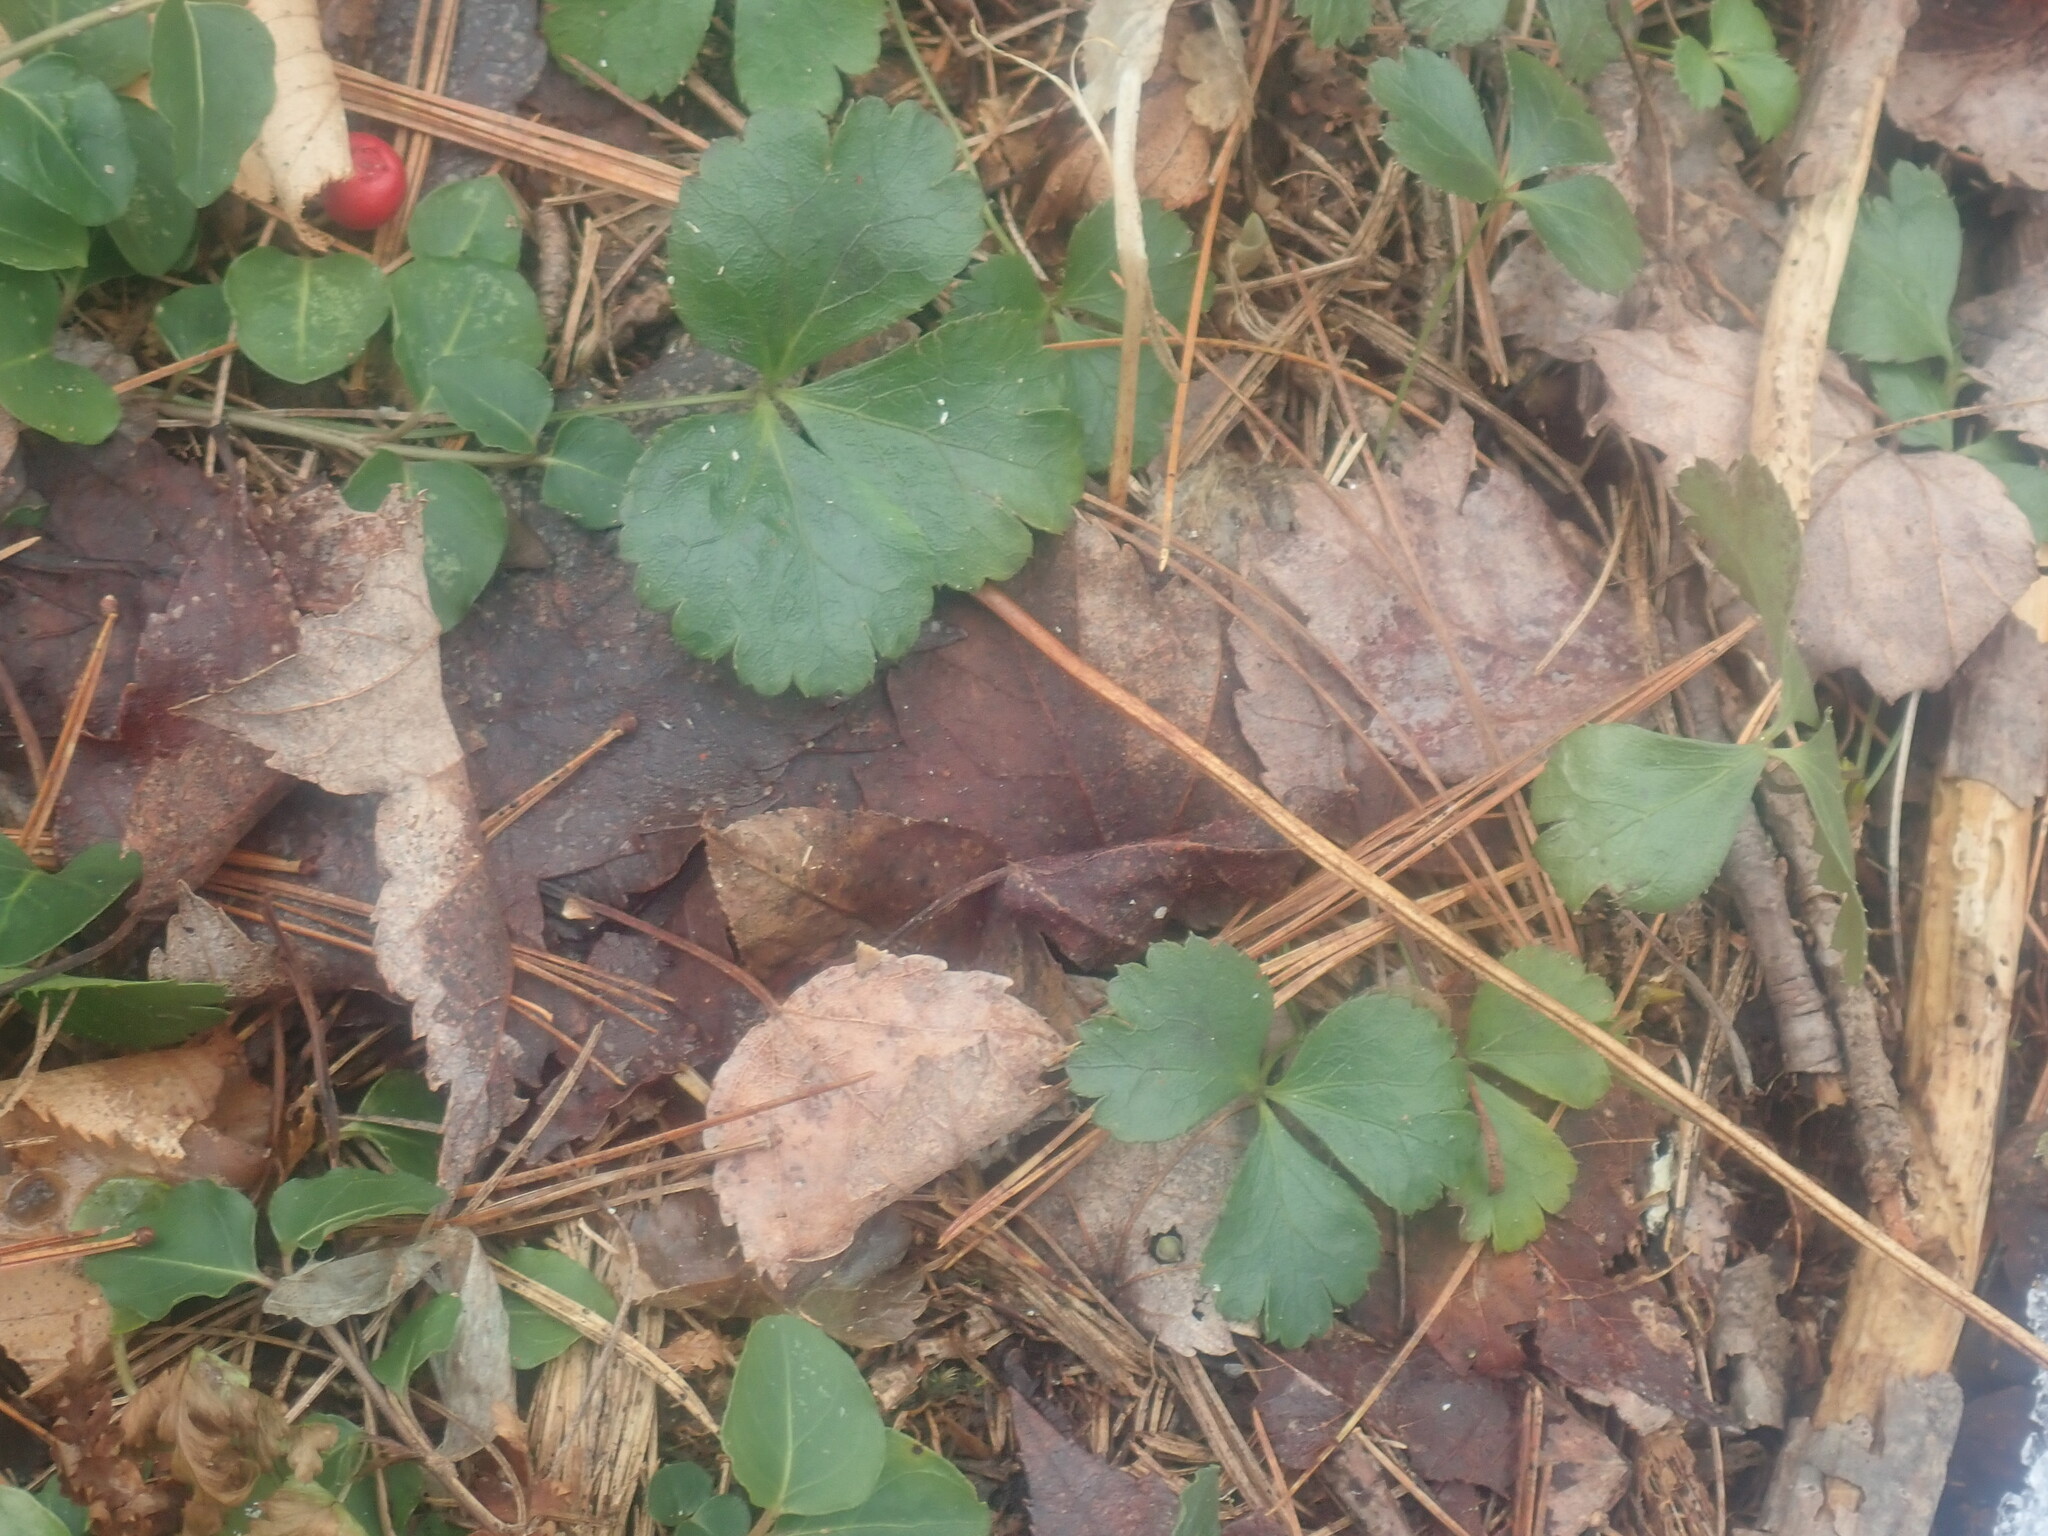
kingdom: Plantae
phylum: Tracheophyta
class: Magnoliopsida
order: Ranunculales
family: Ranunculaceae
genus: Coptis
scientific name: Coptis trifolia
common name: Canker-root
